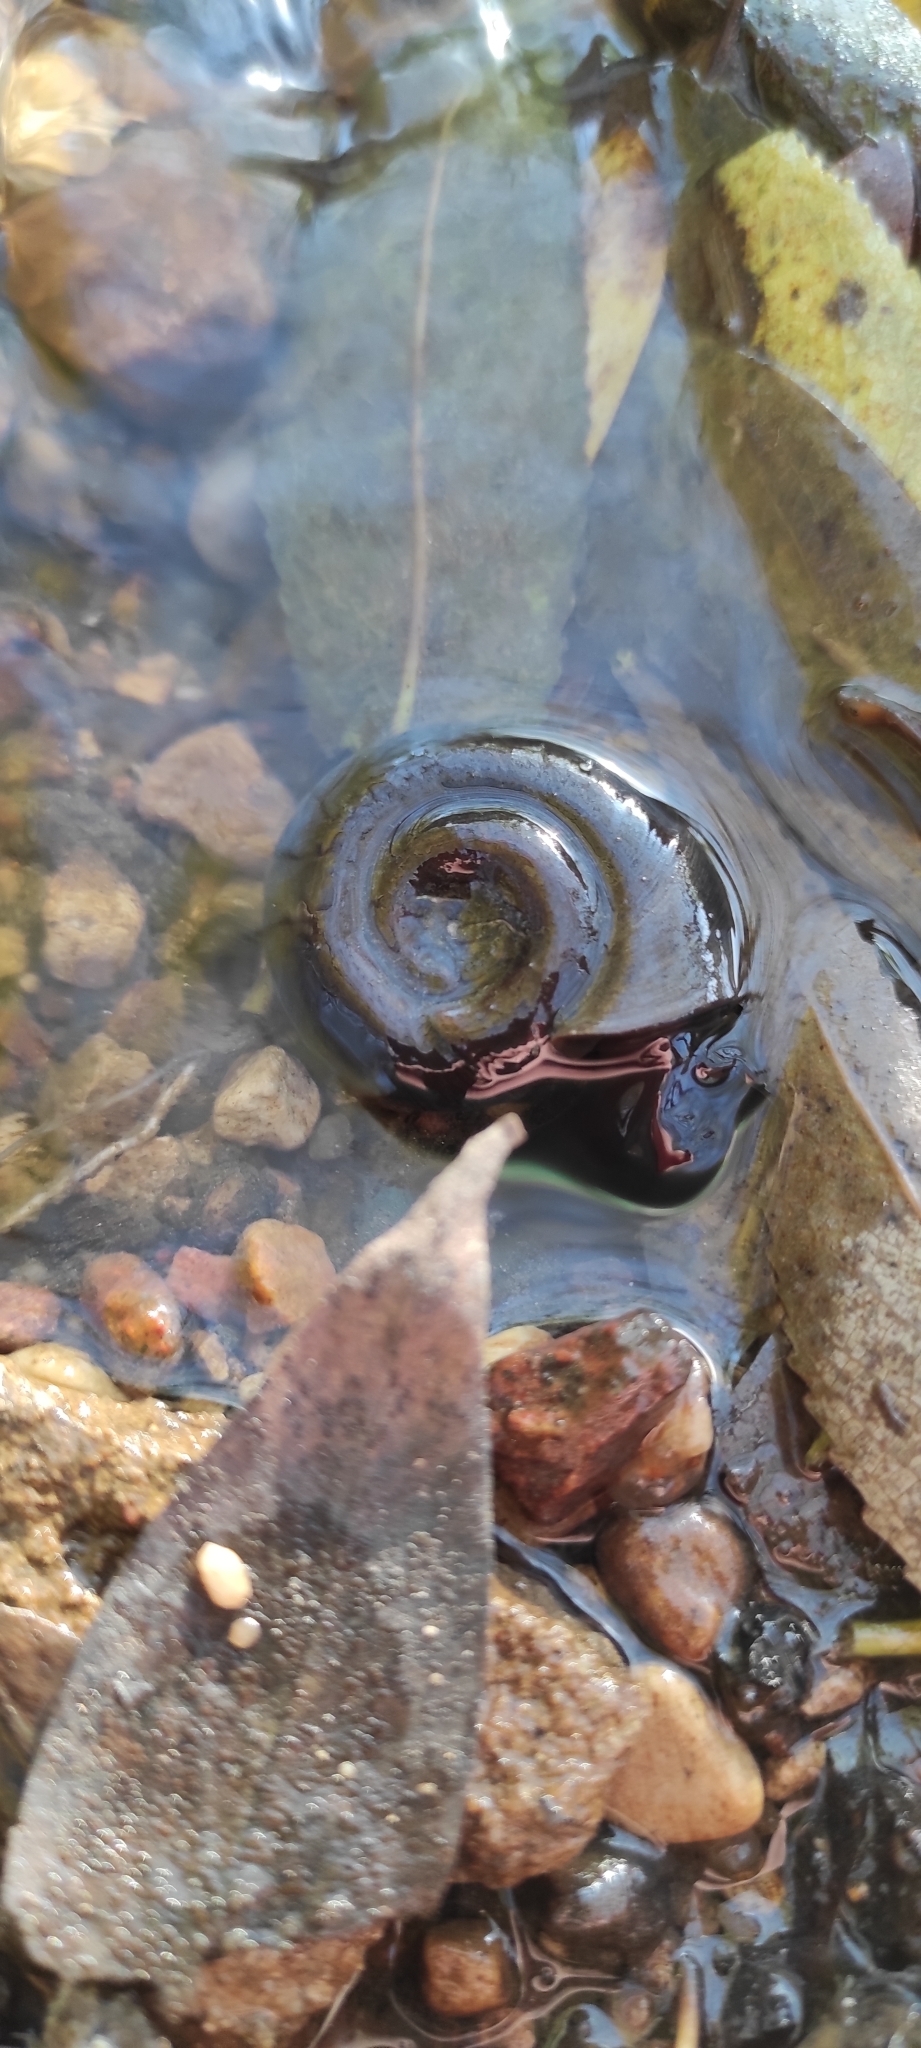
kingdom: Animalia
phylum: Mollusca
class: Gastropoda
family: Planorbidae
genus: Planorbarius
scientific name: Planorbarius corneus
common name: Great ramshorn
